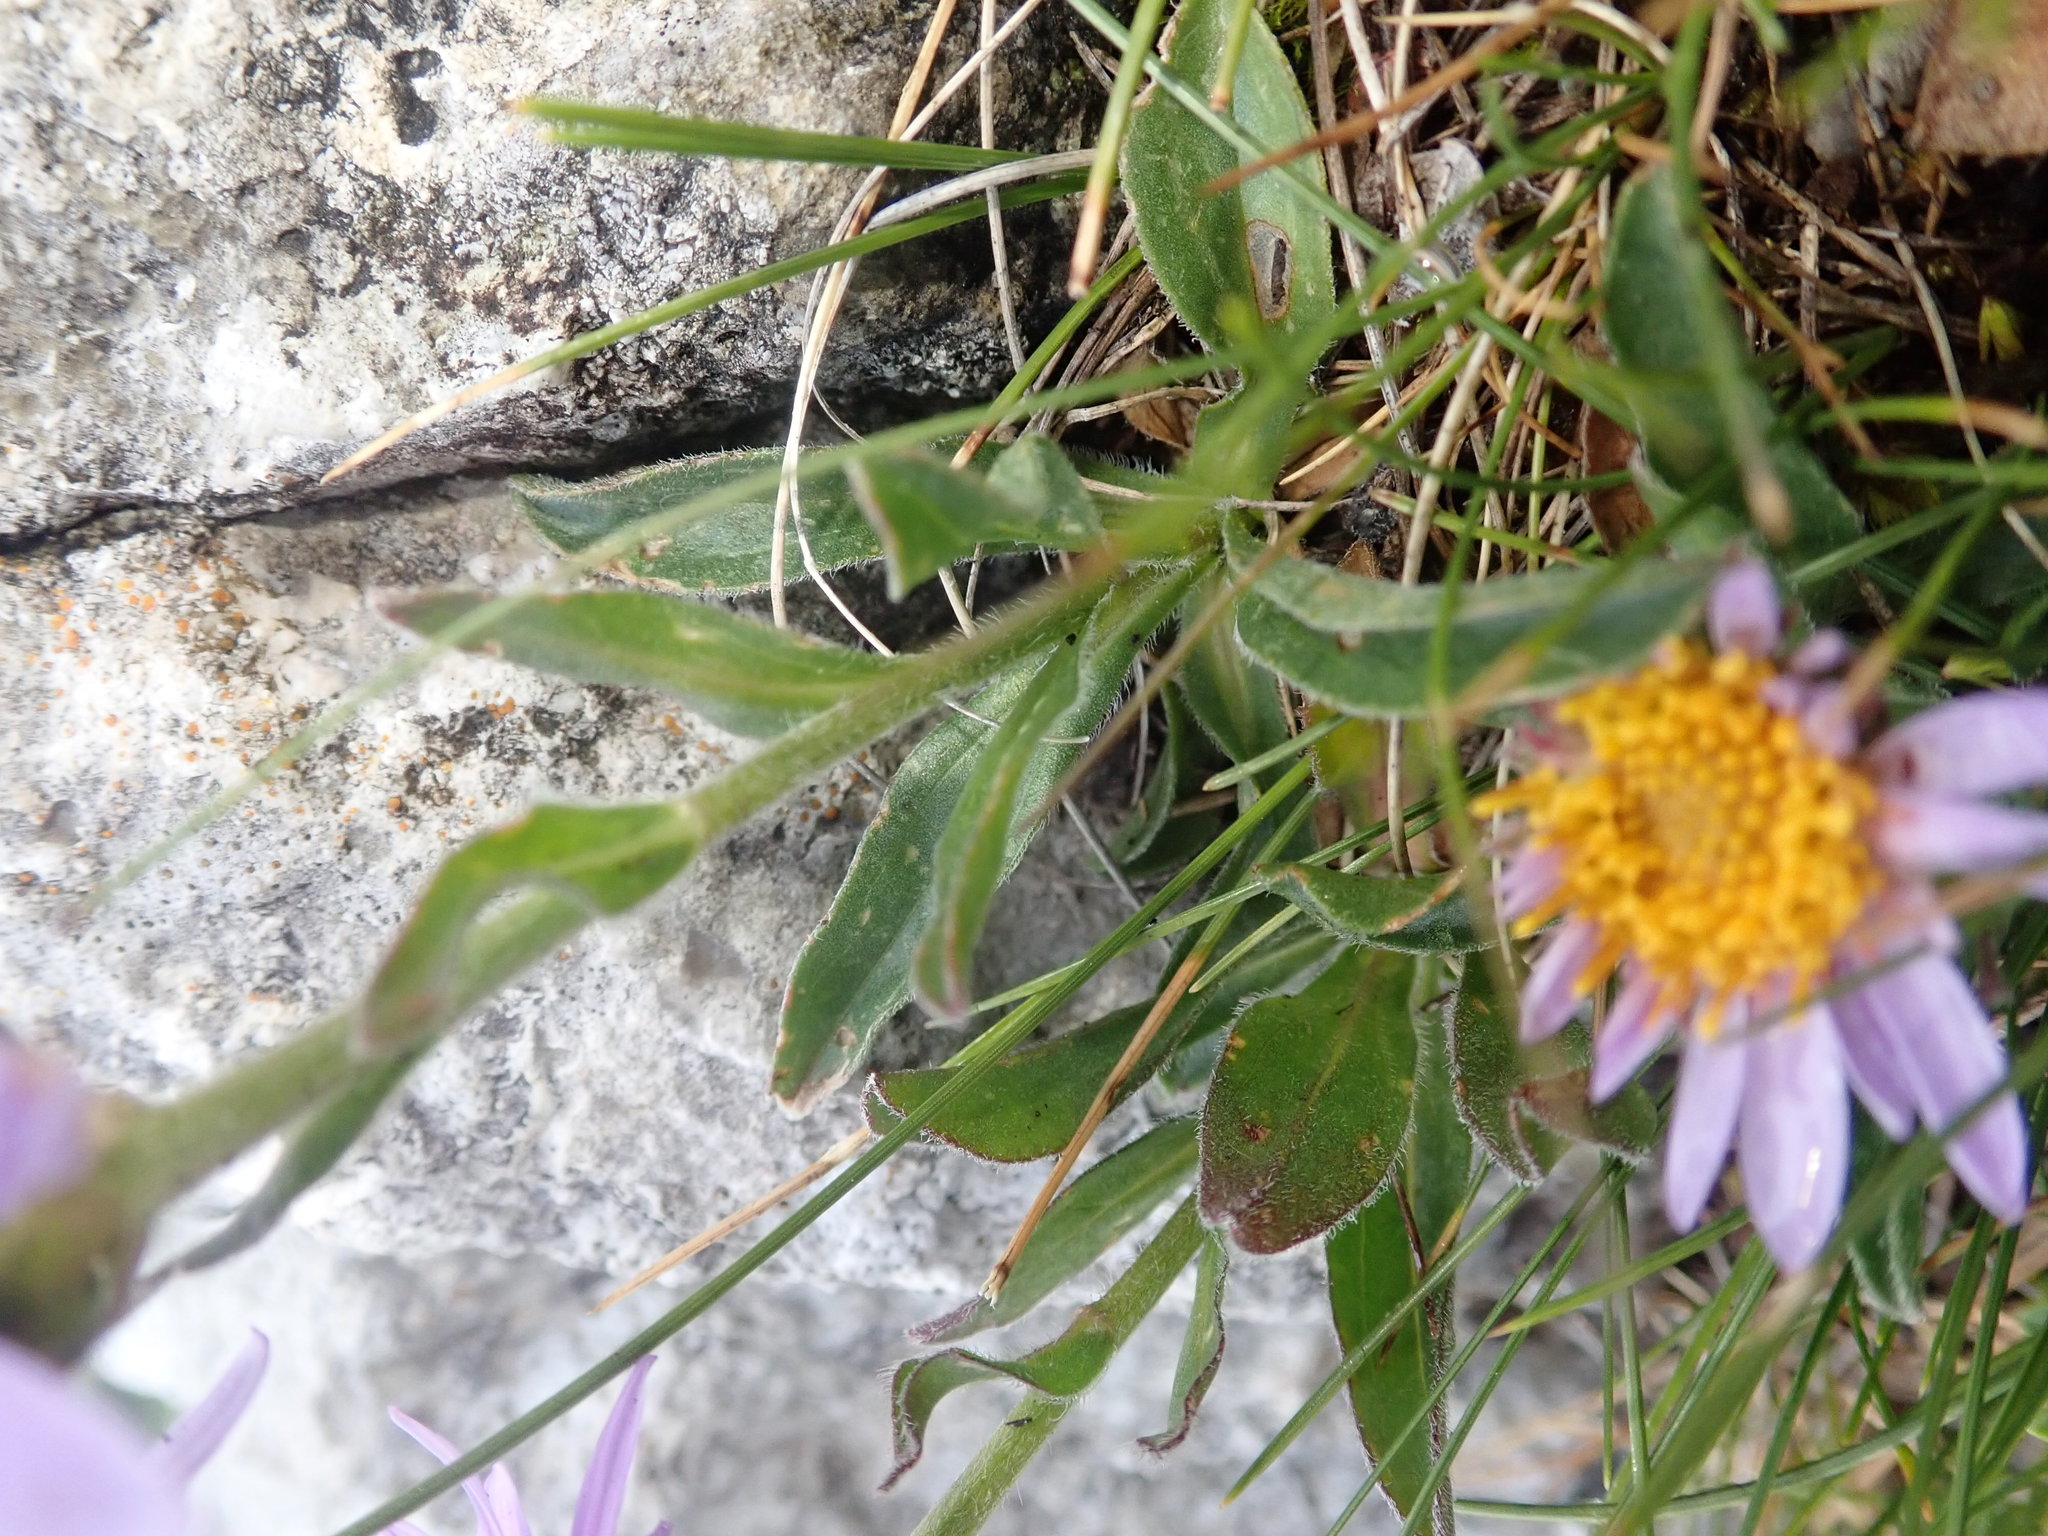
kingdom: Plantae
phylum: Tracheophyta
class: Magnoliopsida
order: Asterales
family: Asteraceae
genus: Aster
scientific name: Aster alpinus
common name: Alpine aster
